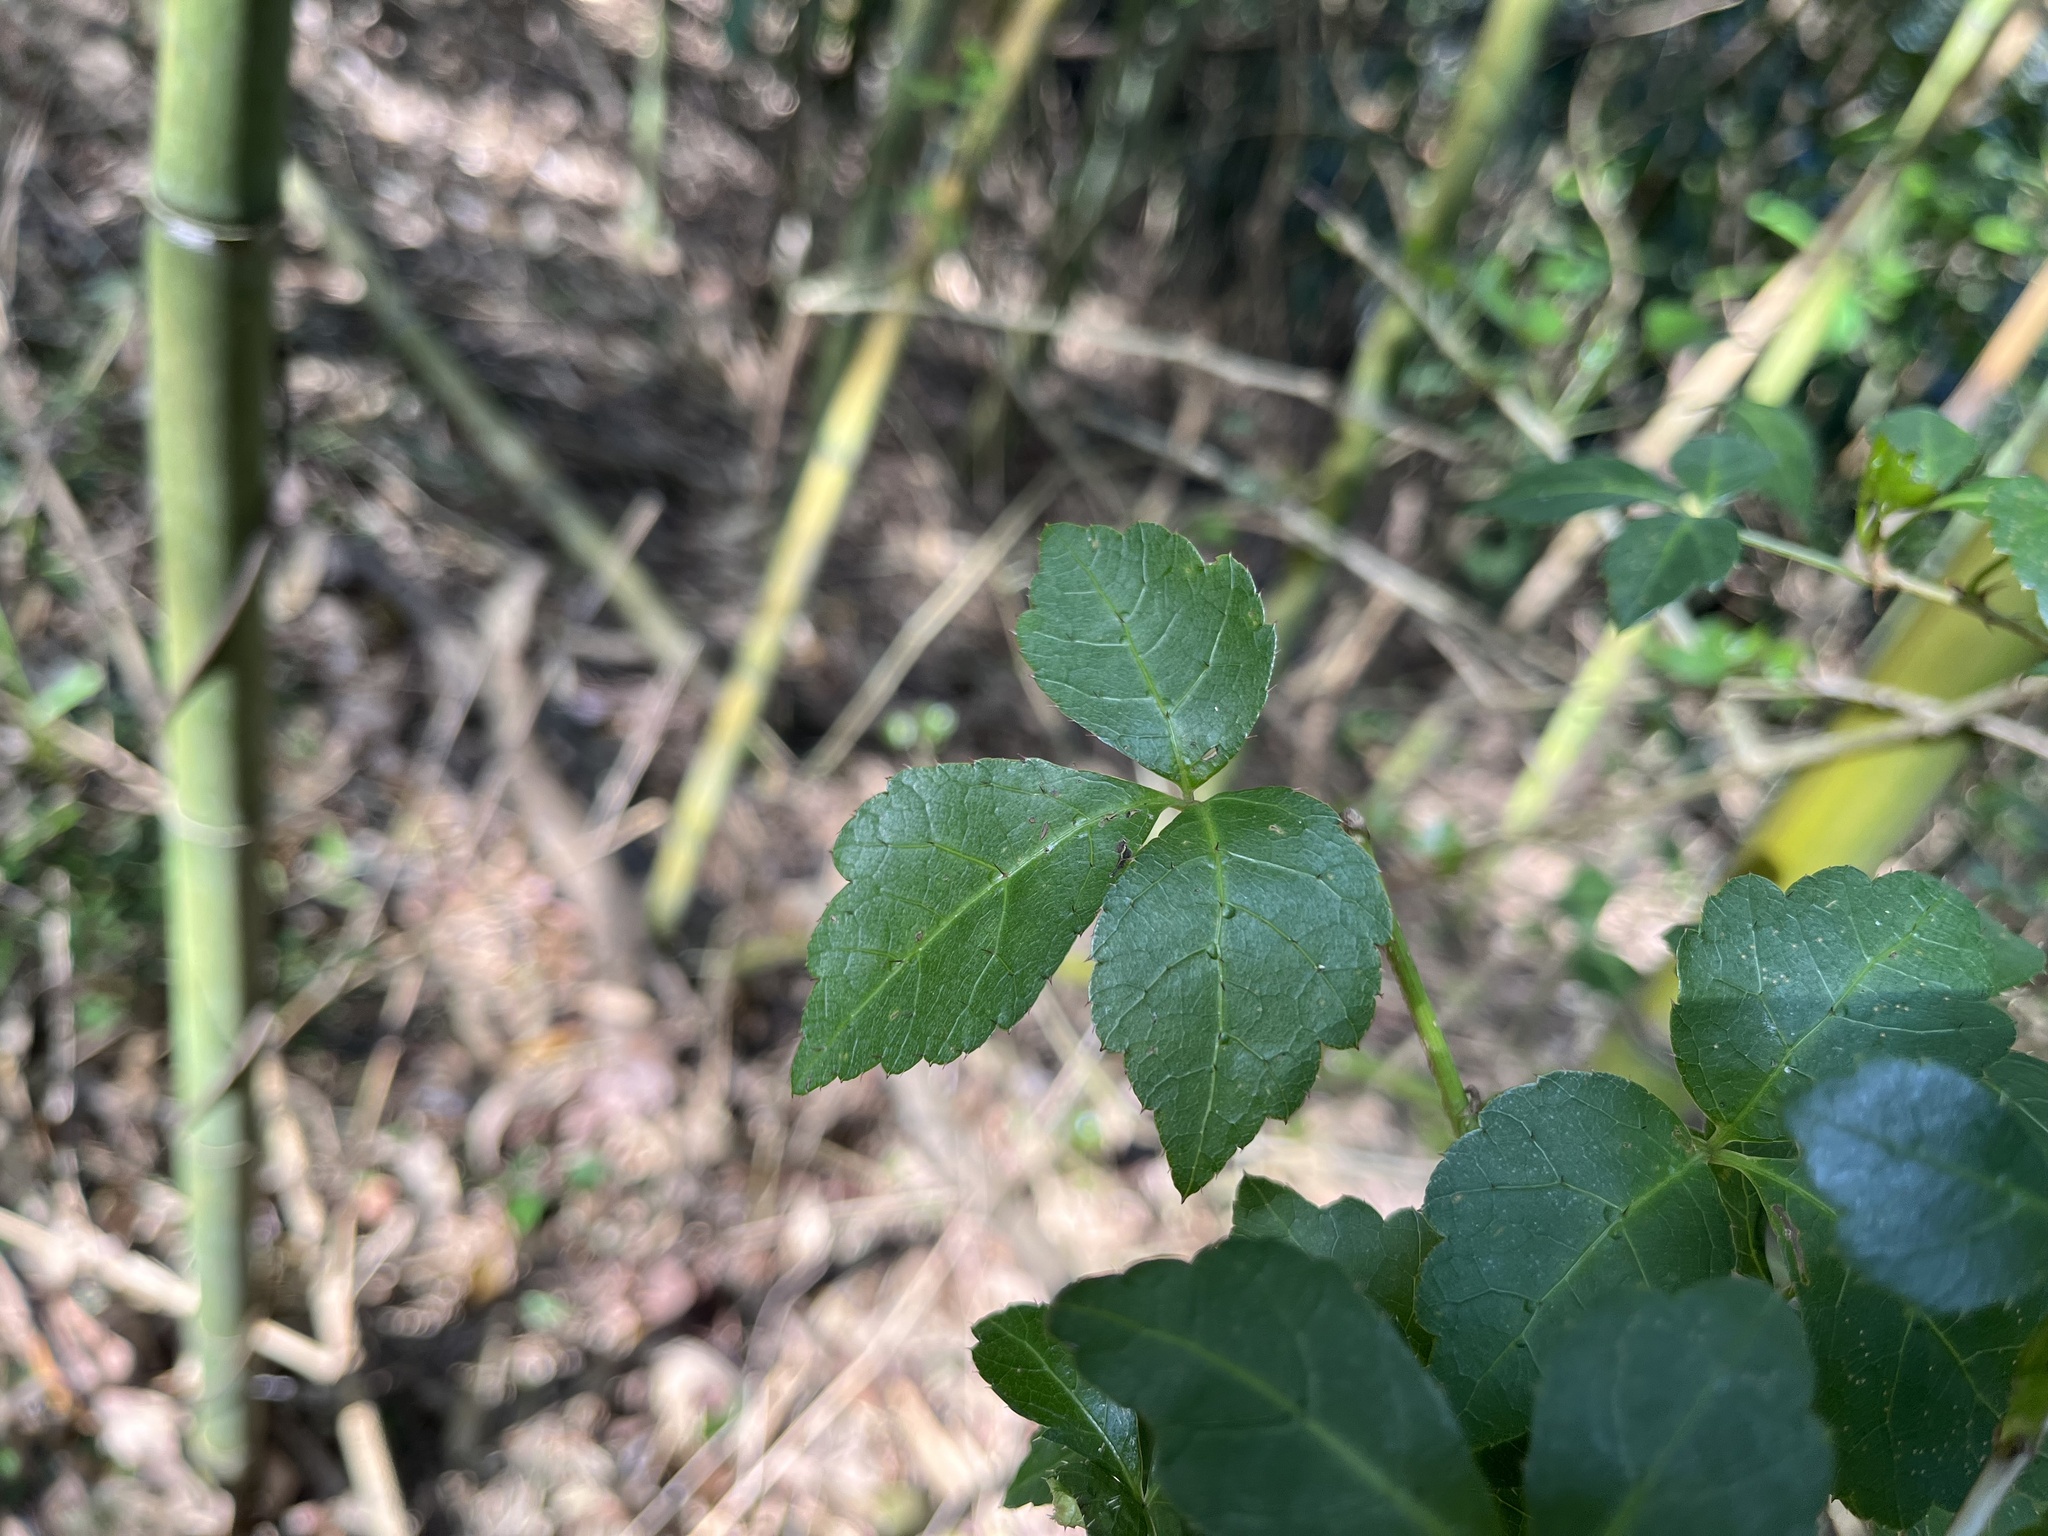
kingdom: Plantae
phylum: Tracheophyta
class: Magnoliopsida
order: Apiales
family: Araliaceae
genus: Eleutherococcus
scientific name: Eleutherococcus setosus
